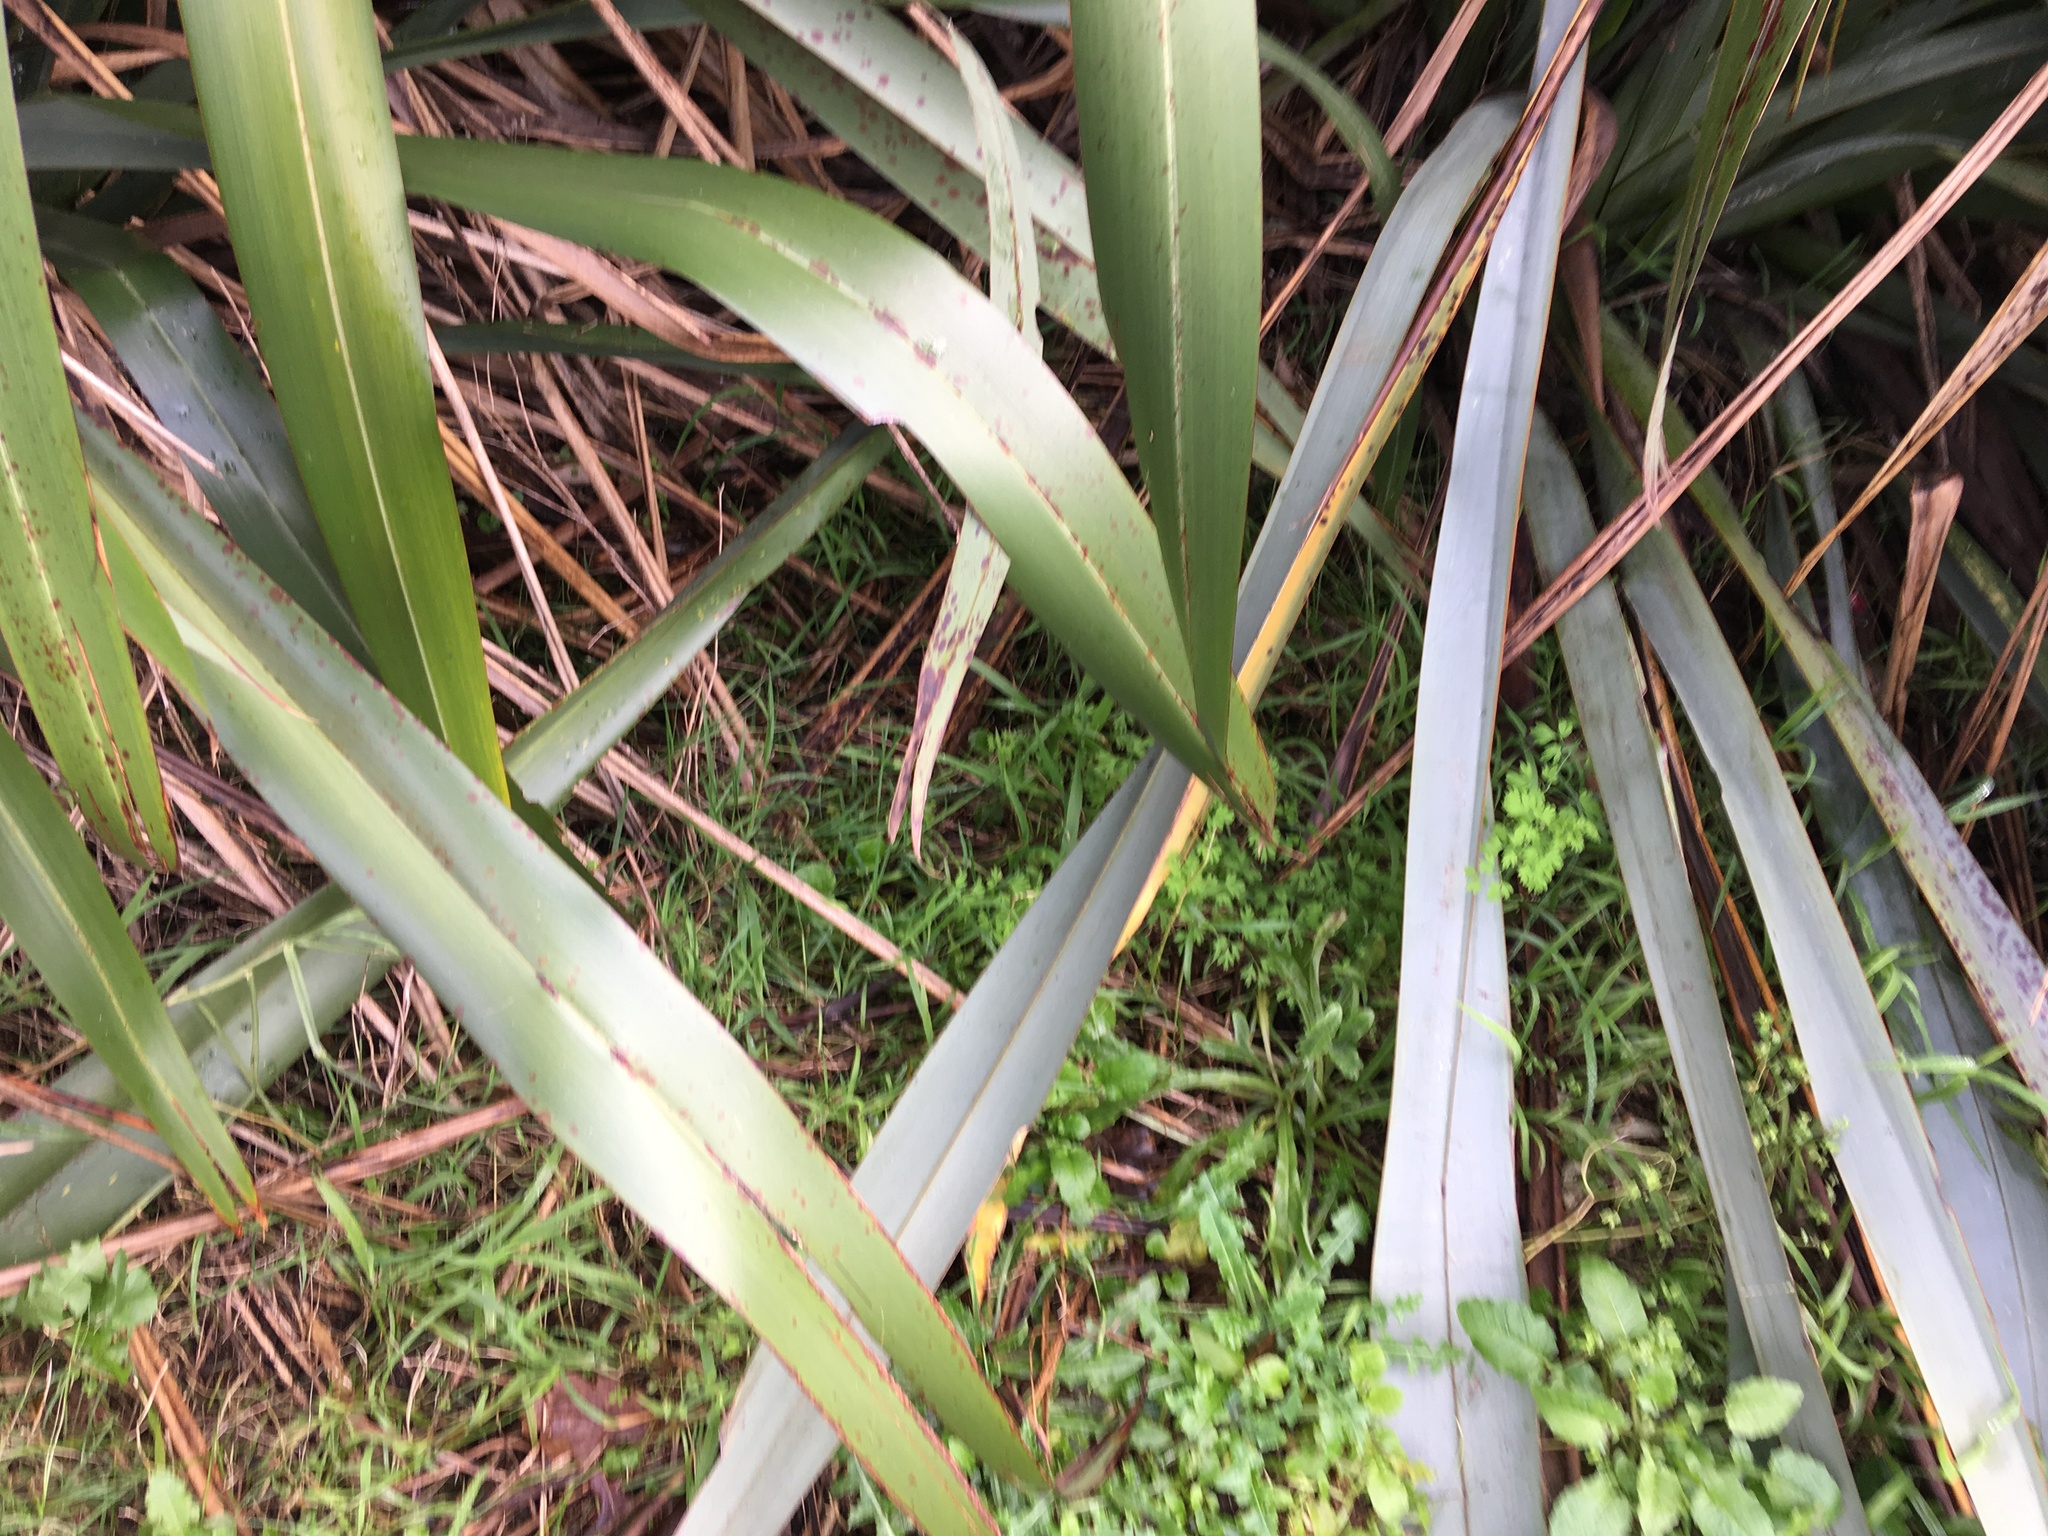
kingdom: Plantae
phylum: Tracheophyta
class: Liliopsida
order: Asparagales
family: Asphodelaceae
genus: Phormium
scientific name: Phormium tenax
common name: New zealand flax
